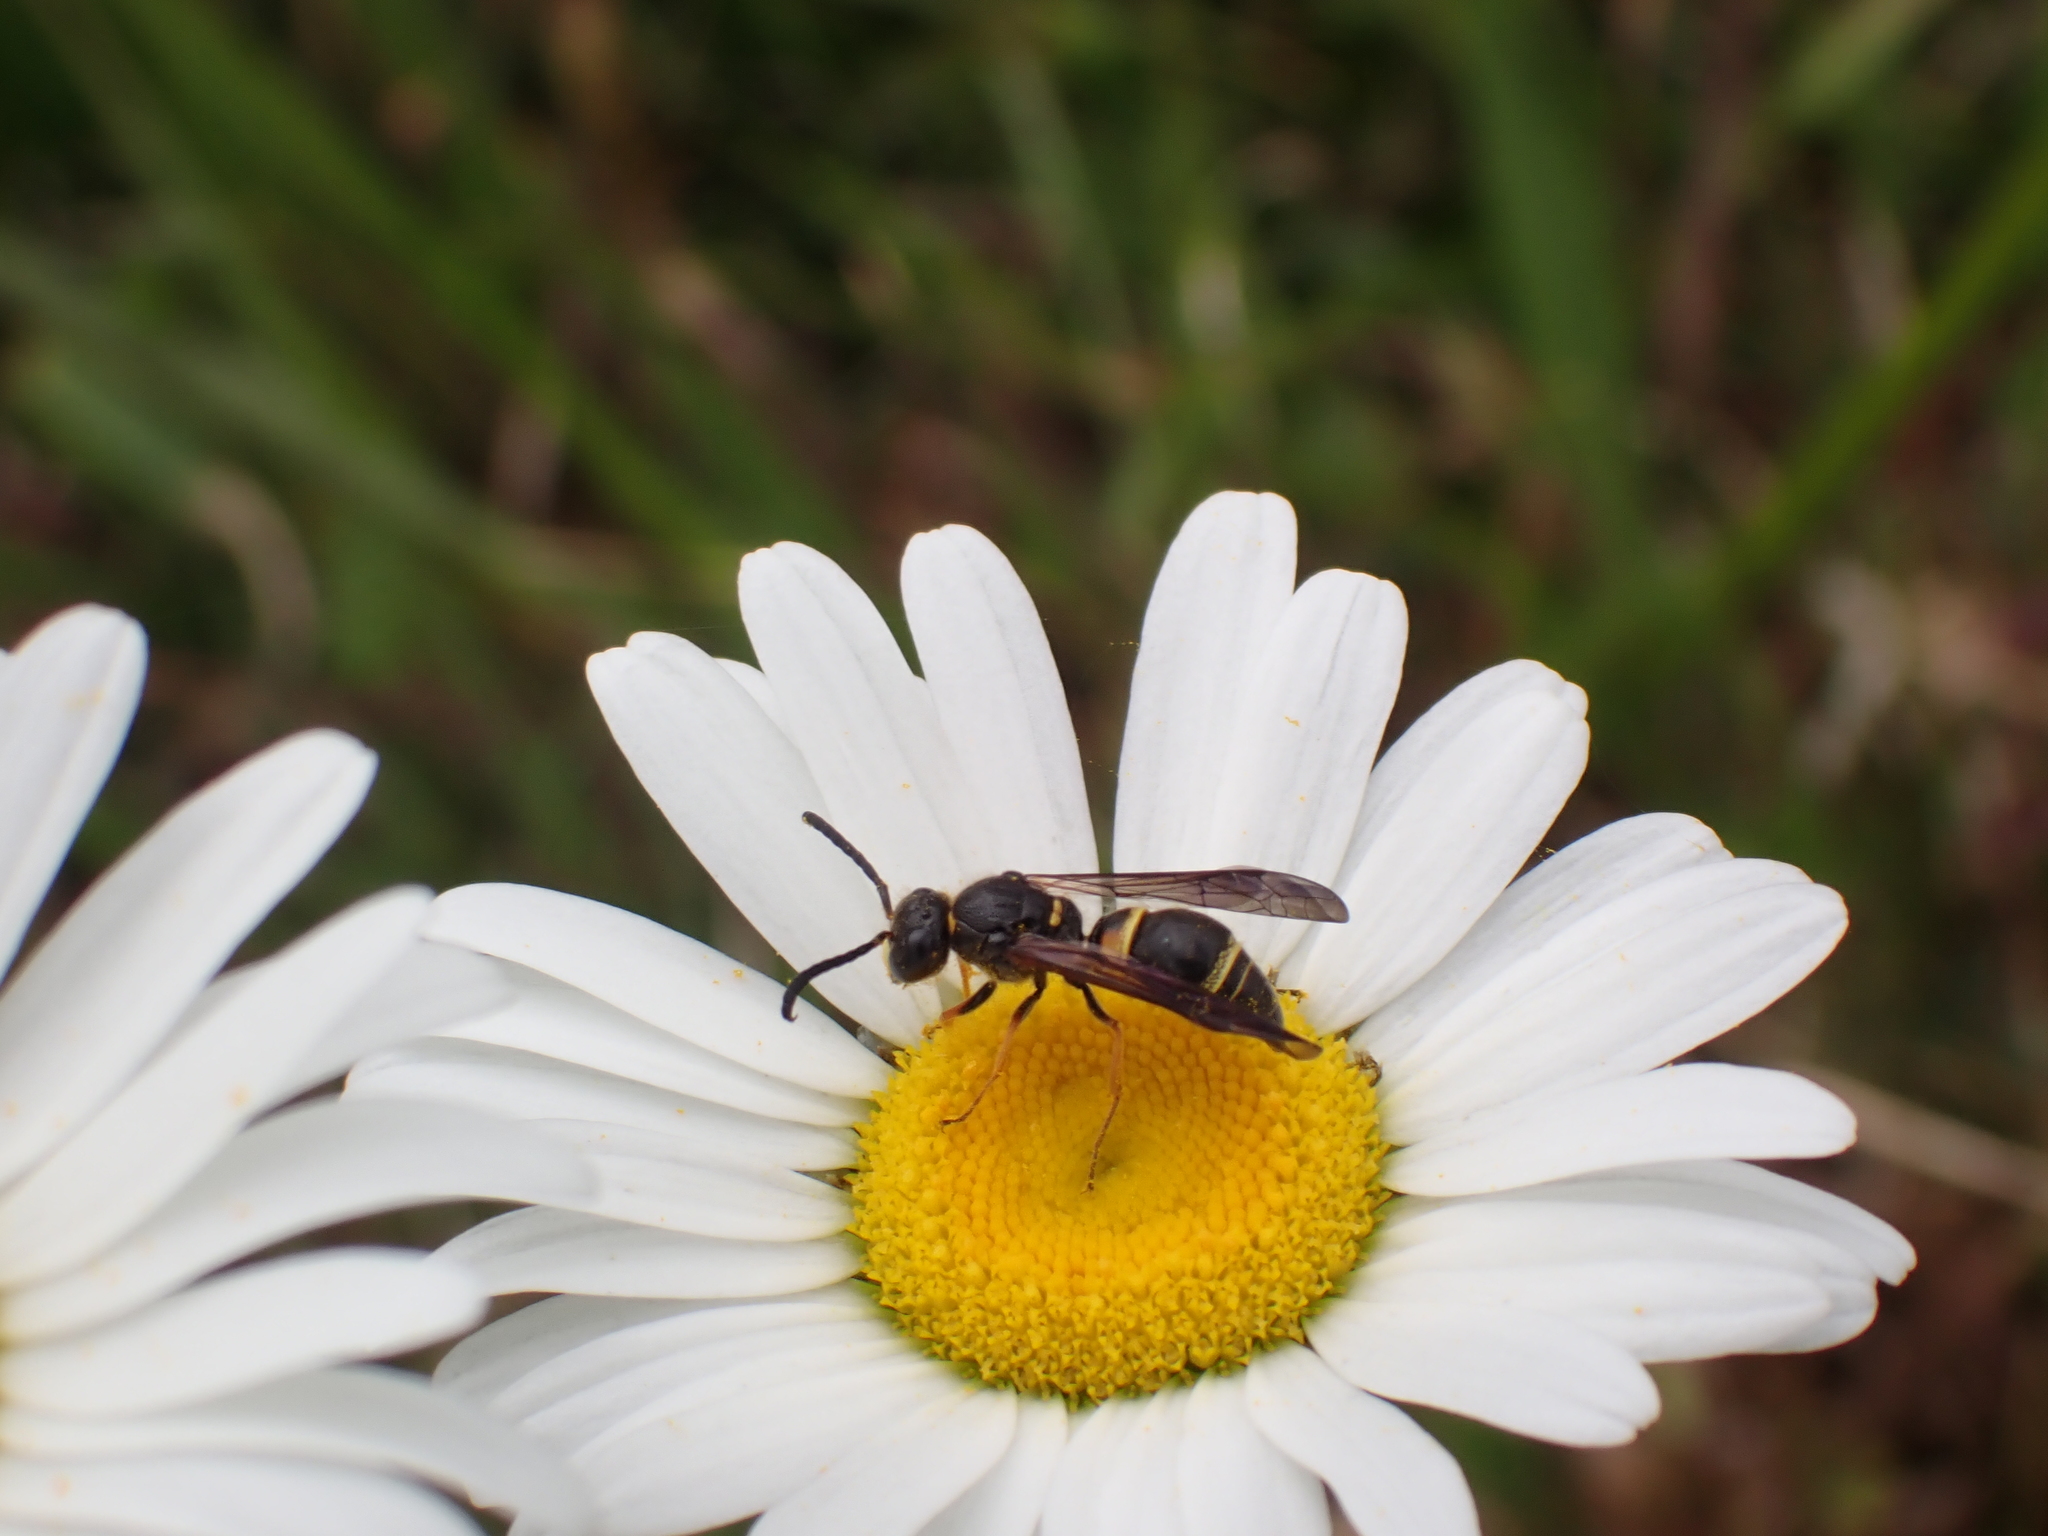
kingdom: Animalia
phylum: Arthropoda
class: Insecta
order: Hymenoptera
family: Vespidae
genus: Ancistrocerus
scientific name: Ancistrocerus unifasciatus
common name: One-banded mason wasp
